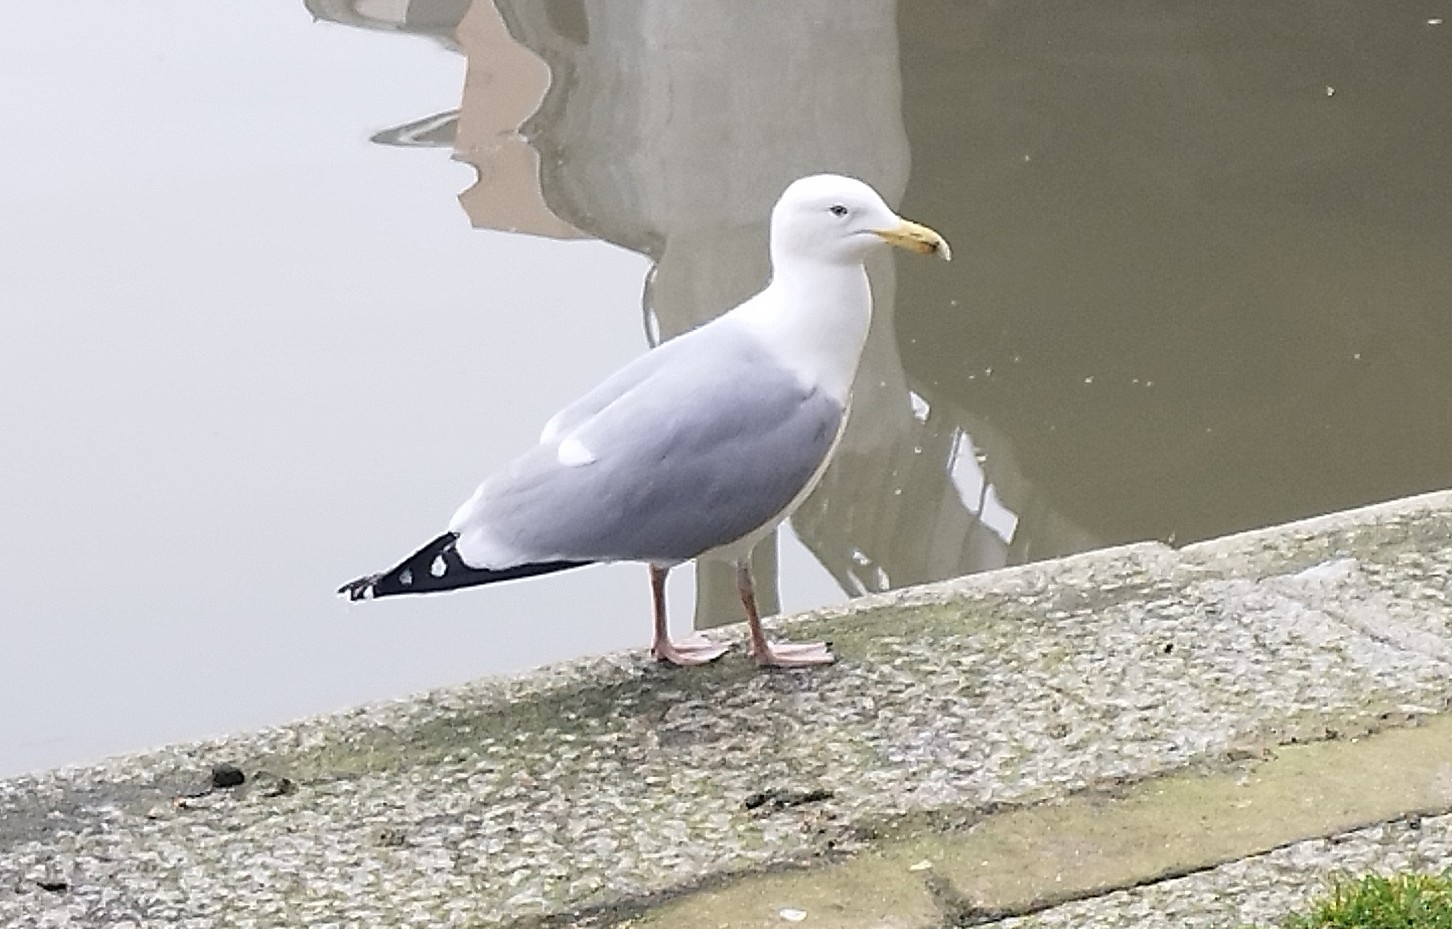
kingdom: Animalia
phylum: Chordata
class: Aves
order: Charadriiformes
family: Laridae
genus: Larus
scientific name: Larus argentatus
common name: Herring gull
